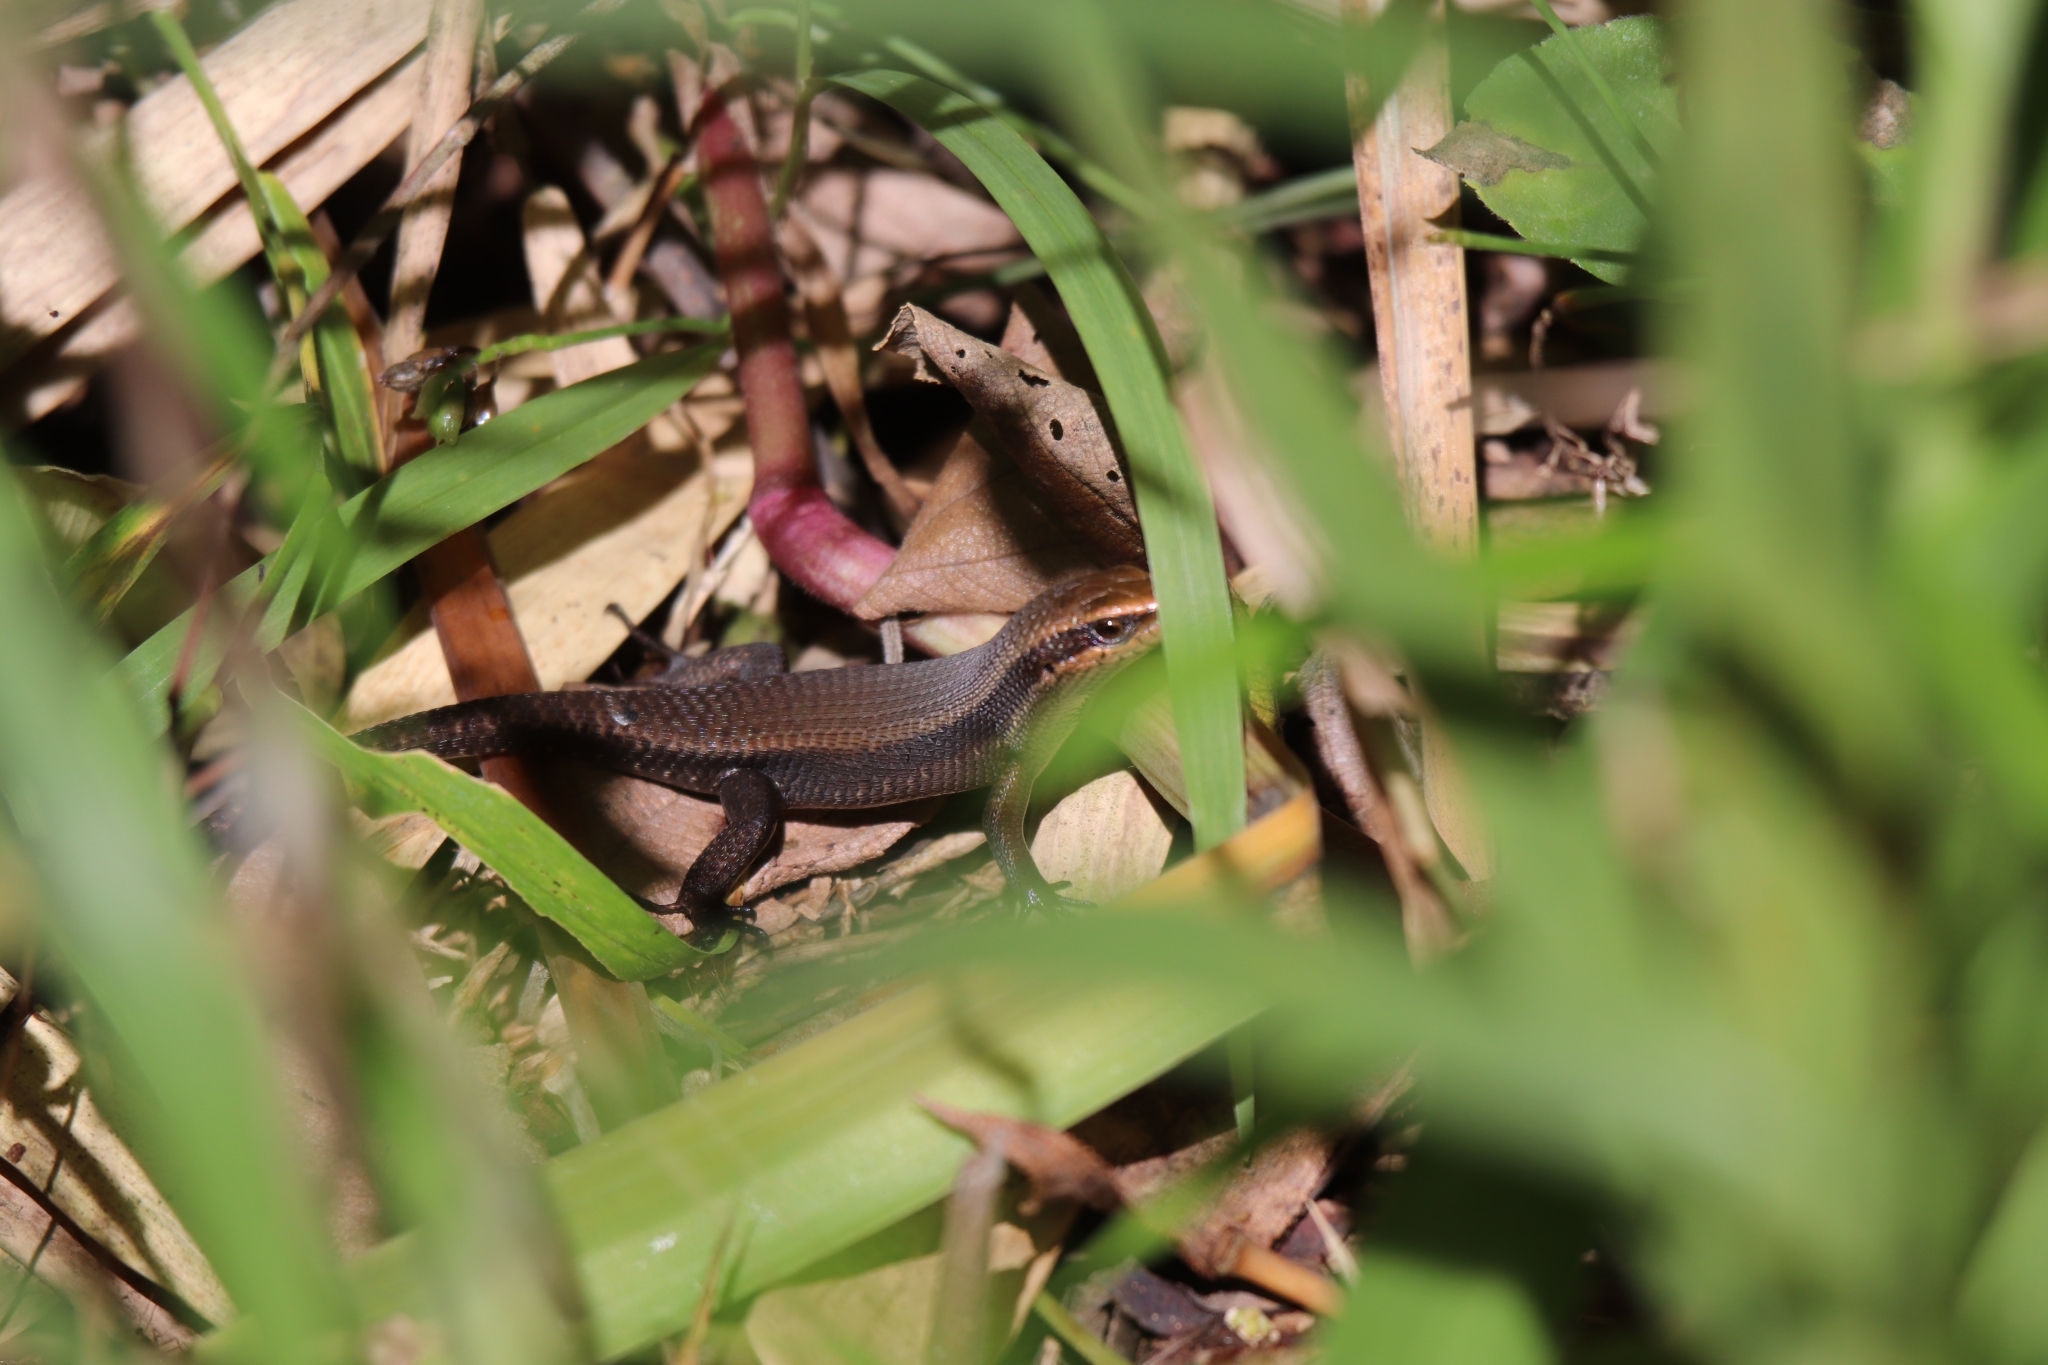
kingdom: Animalia
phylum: Chordata
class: Squamata
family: Scincidae
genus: Eutropis
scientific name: Eutropis rudis
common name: Rough mabuya
